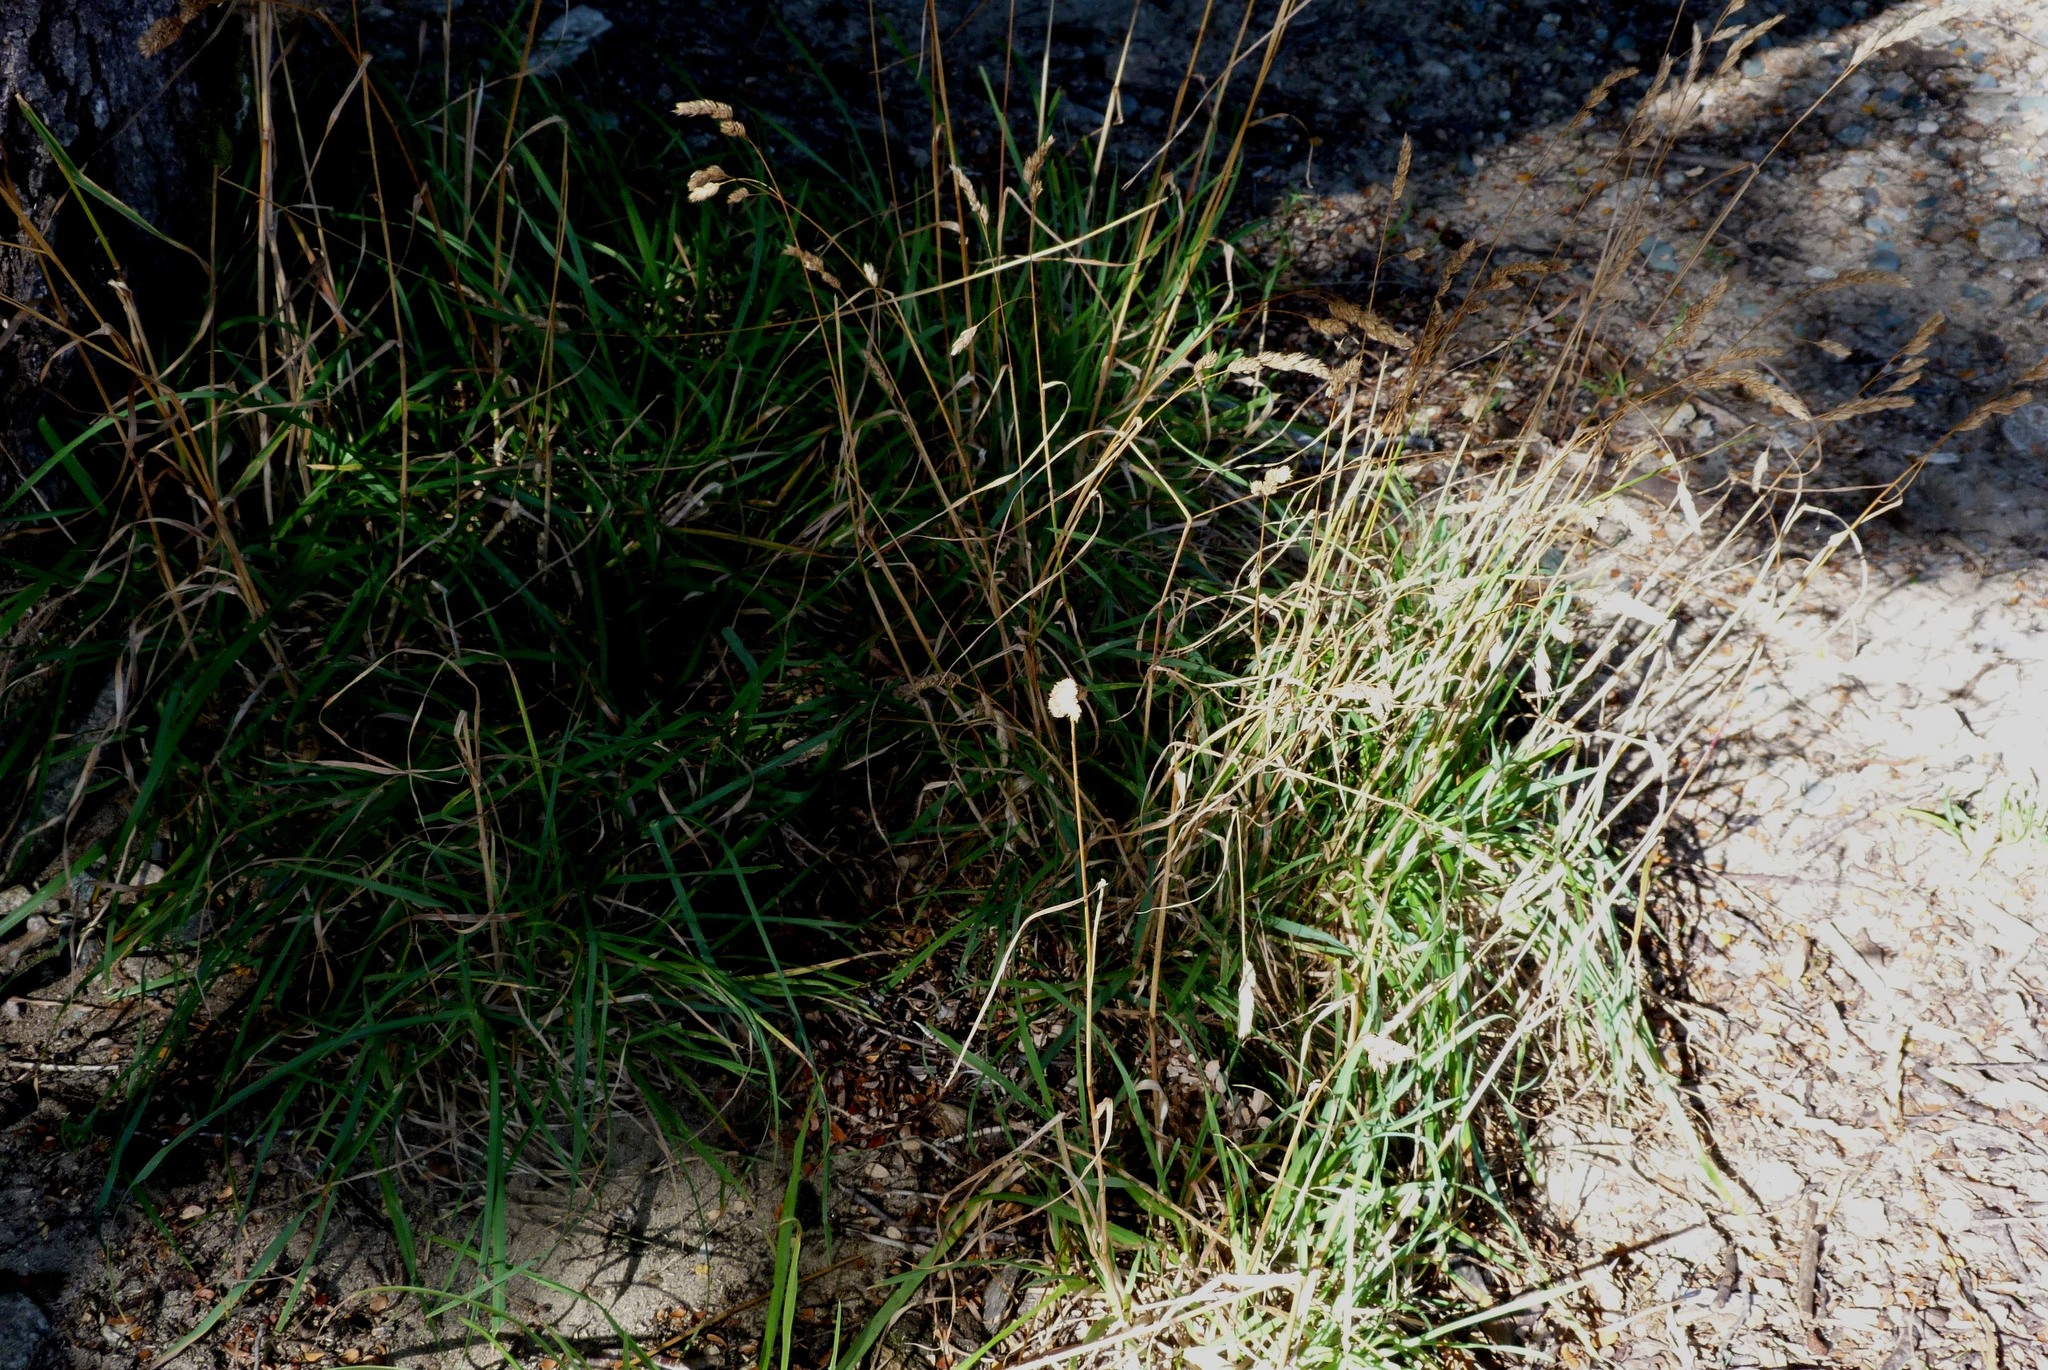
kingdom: Plantae
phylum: Tracheophyta
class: Liliopsida
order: Poales
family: Poaceae
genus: Dactylis
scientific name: Dactylis glomerata
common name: Orchardgrass
